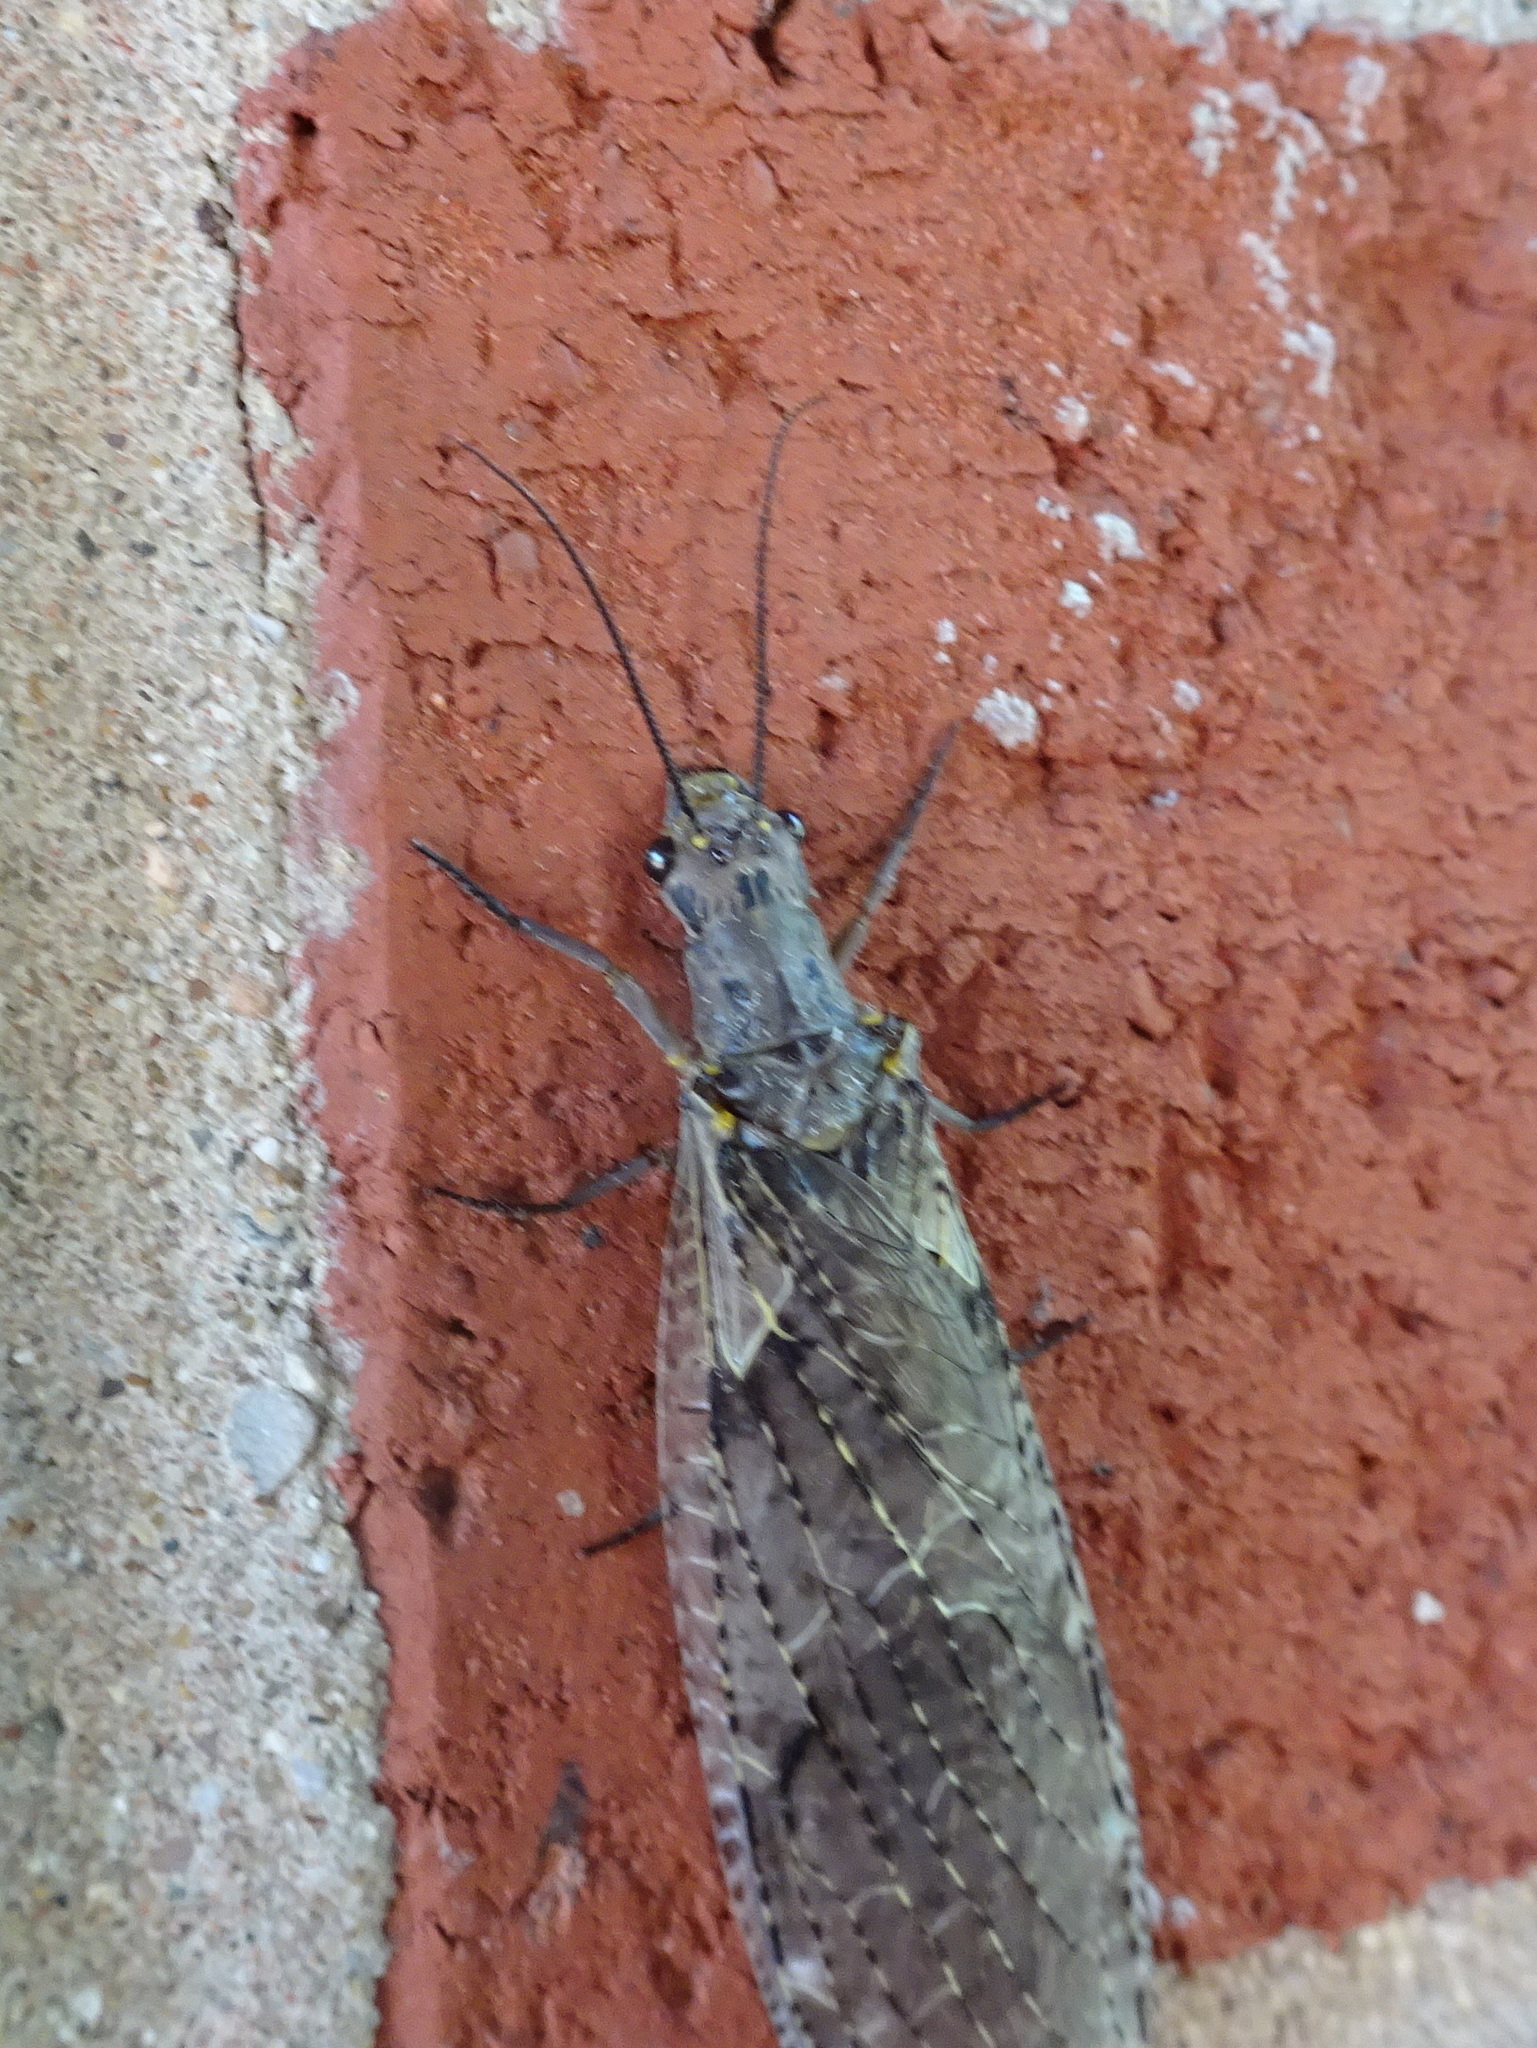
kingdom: Animalia
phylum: Arthropoda
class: Insecta
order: Megaloptera
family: Corydalidae
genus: Chauliodes
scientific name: Chauliodes rastricornis
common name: Spring fishfly
